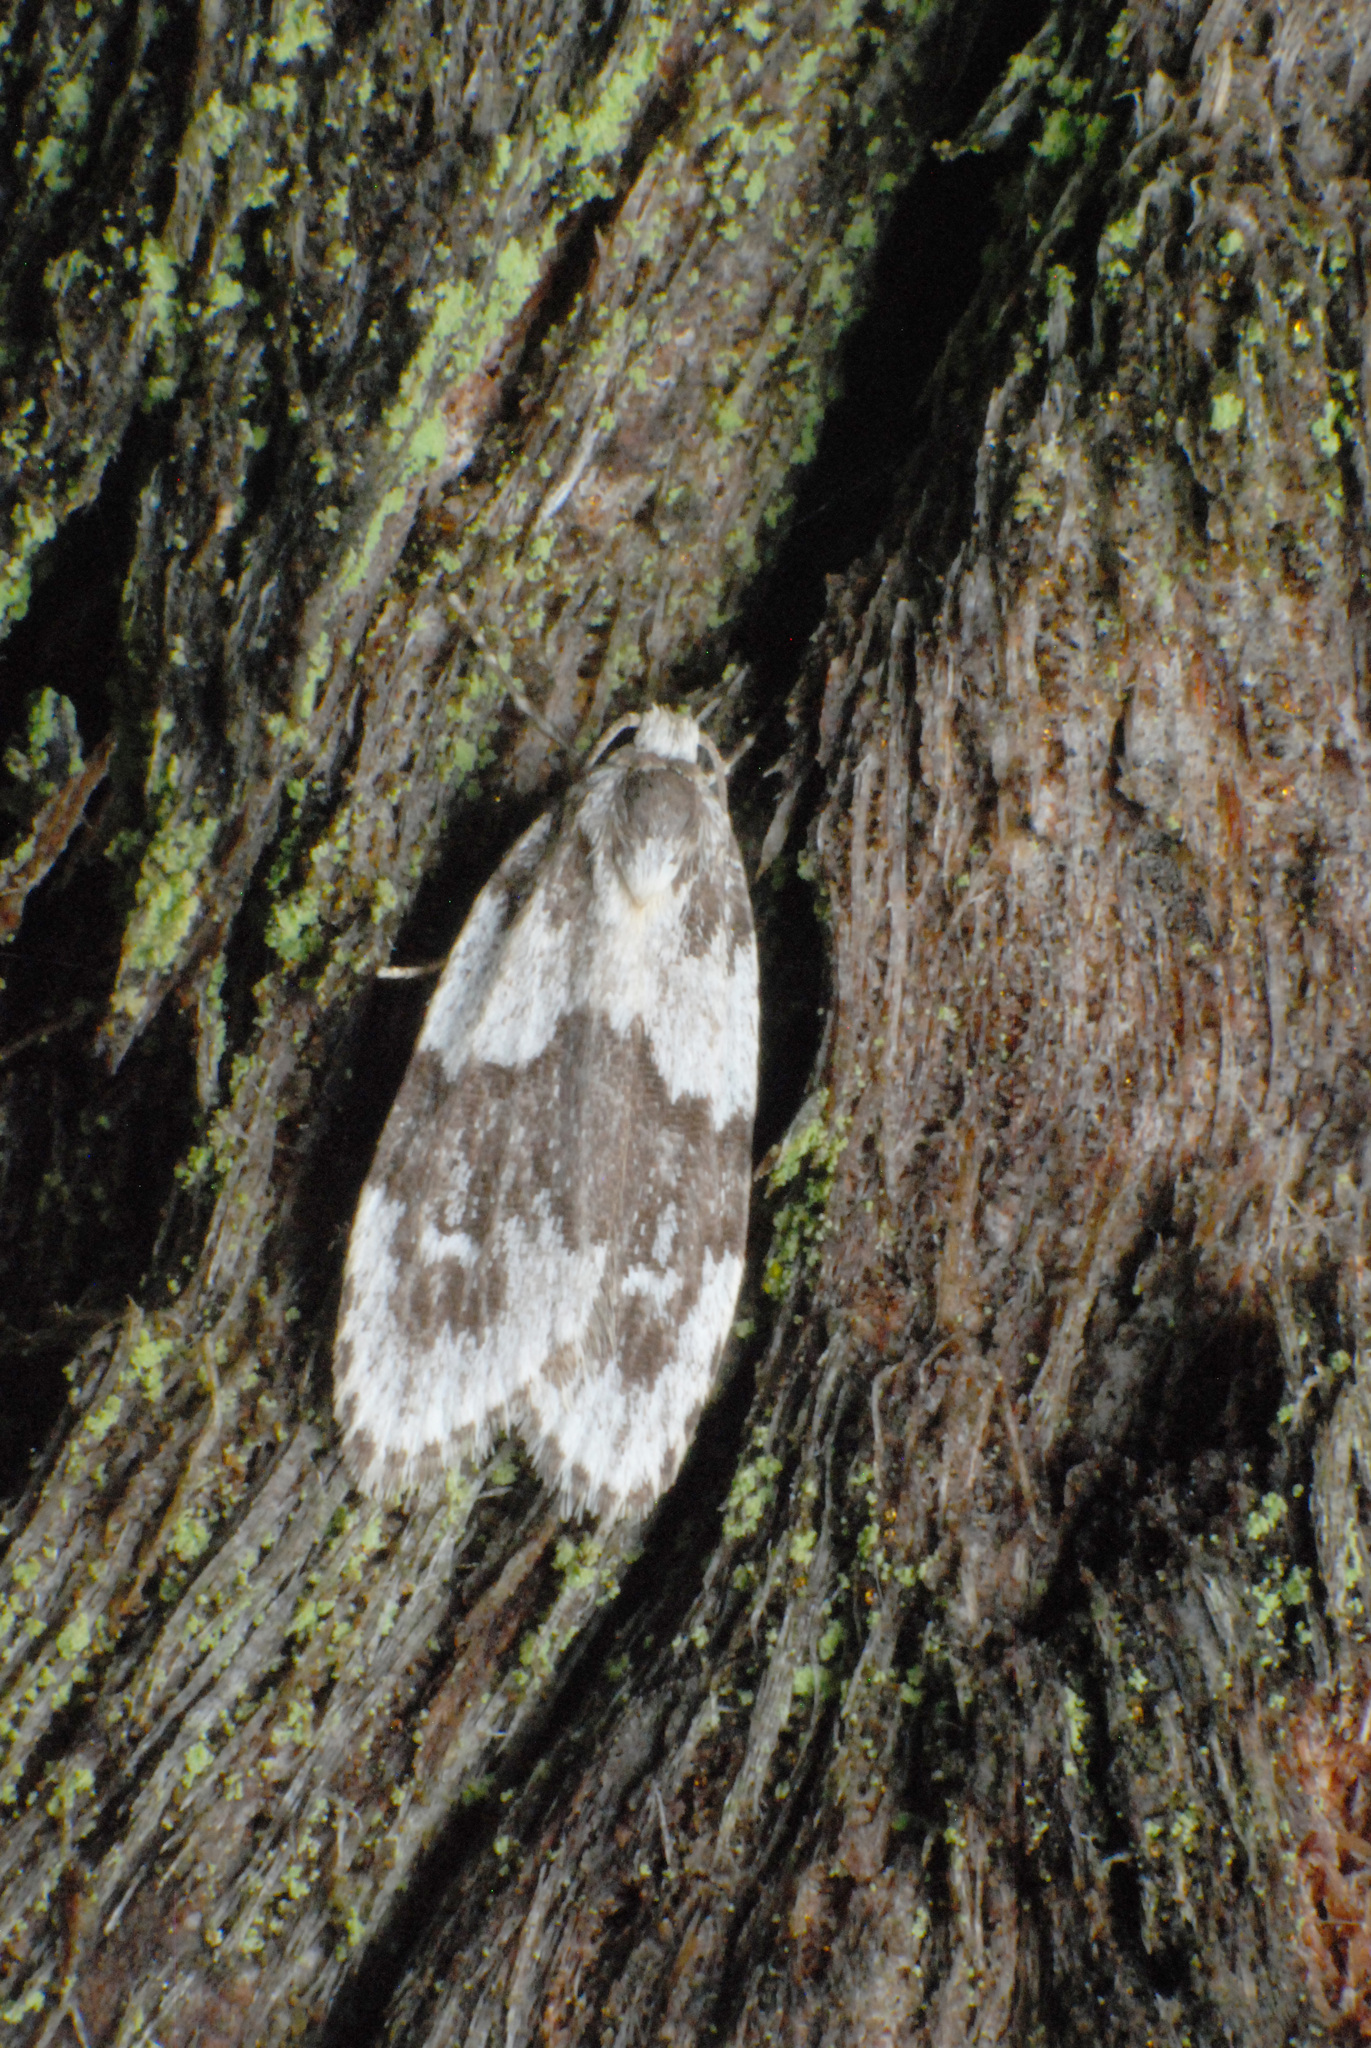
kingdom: Animalia
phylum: Arthropoda
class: Insecta
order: Lepidoptera
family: Erebidae
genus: Halone
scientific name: Halone prosenes
